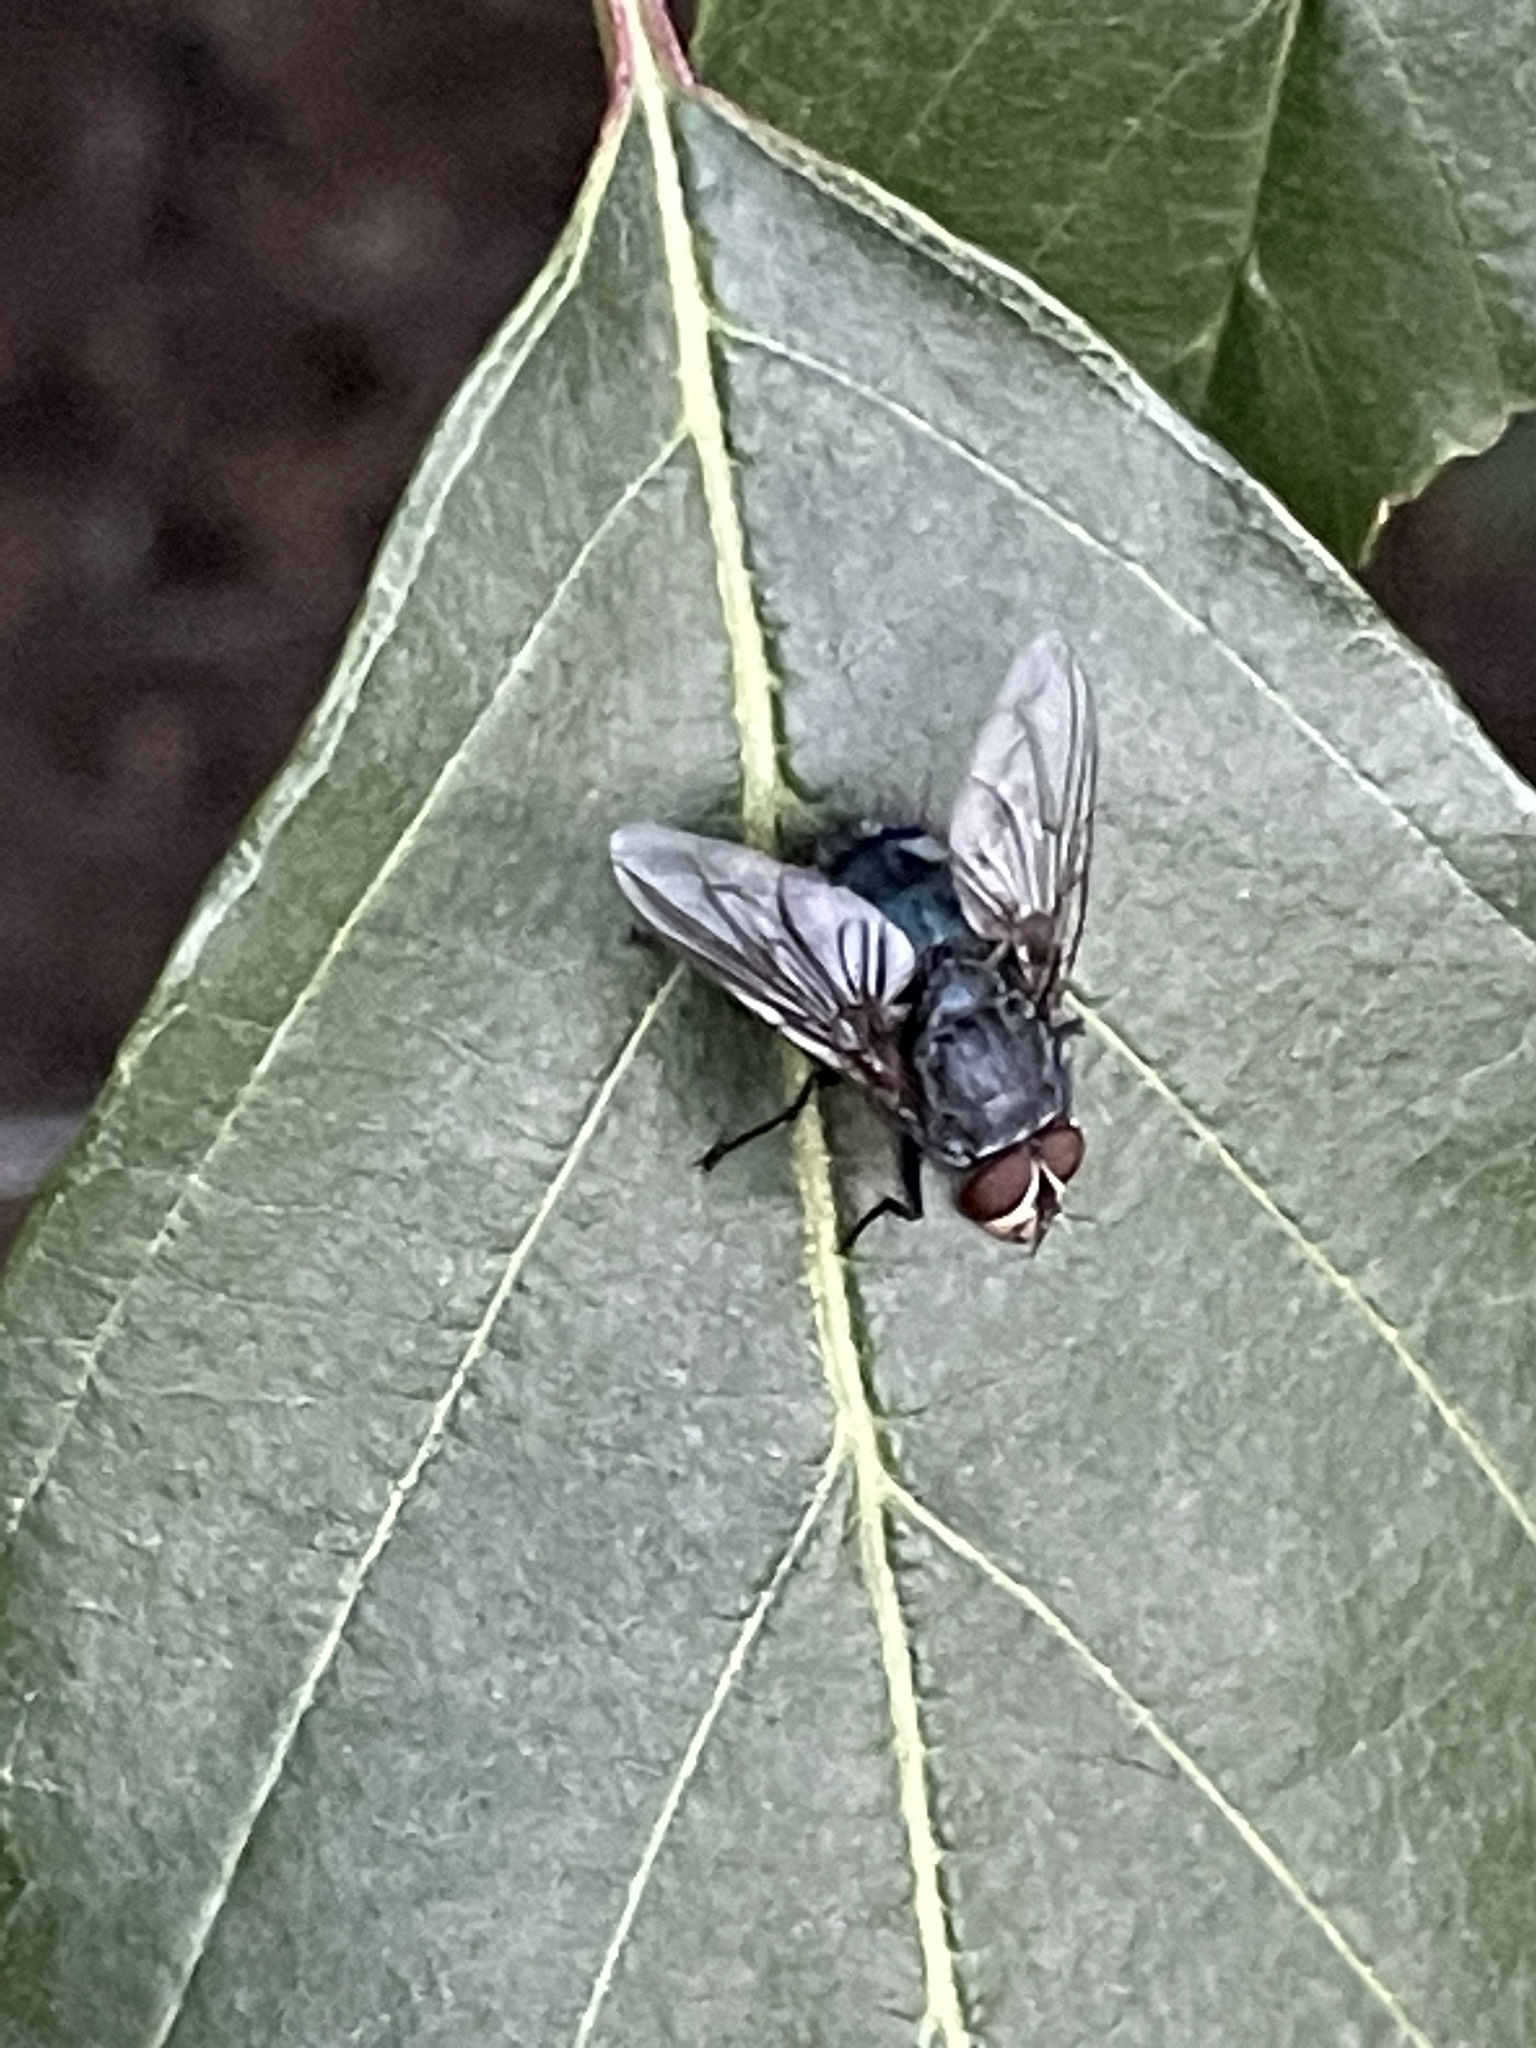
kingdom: Animalia
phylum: Arthropoda
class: Insecta
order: Diptera
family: Calliphoridae
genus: Calliphora
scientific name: Calliphora vicina
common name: Common blow flie
